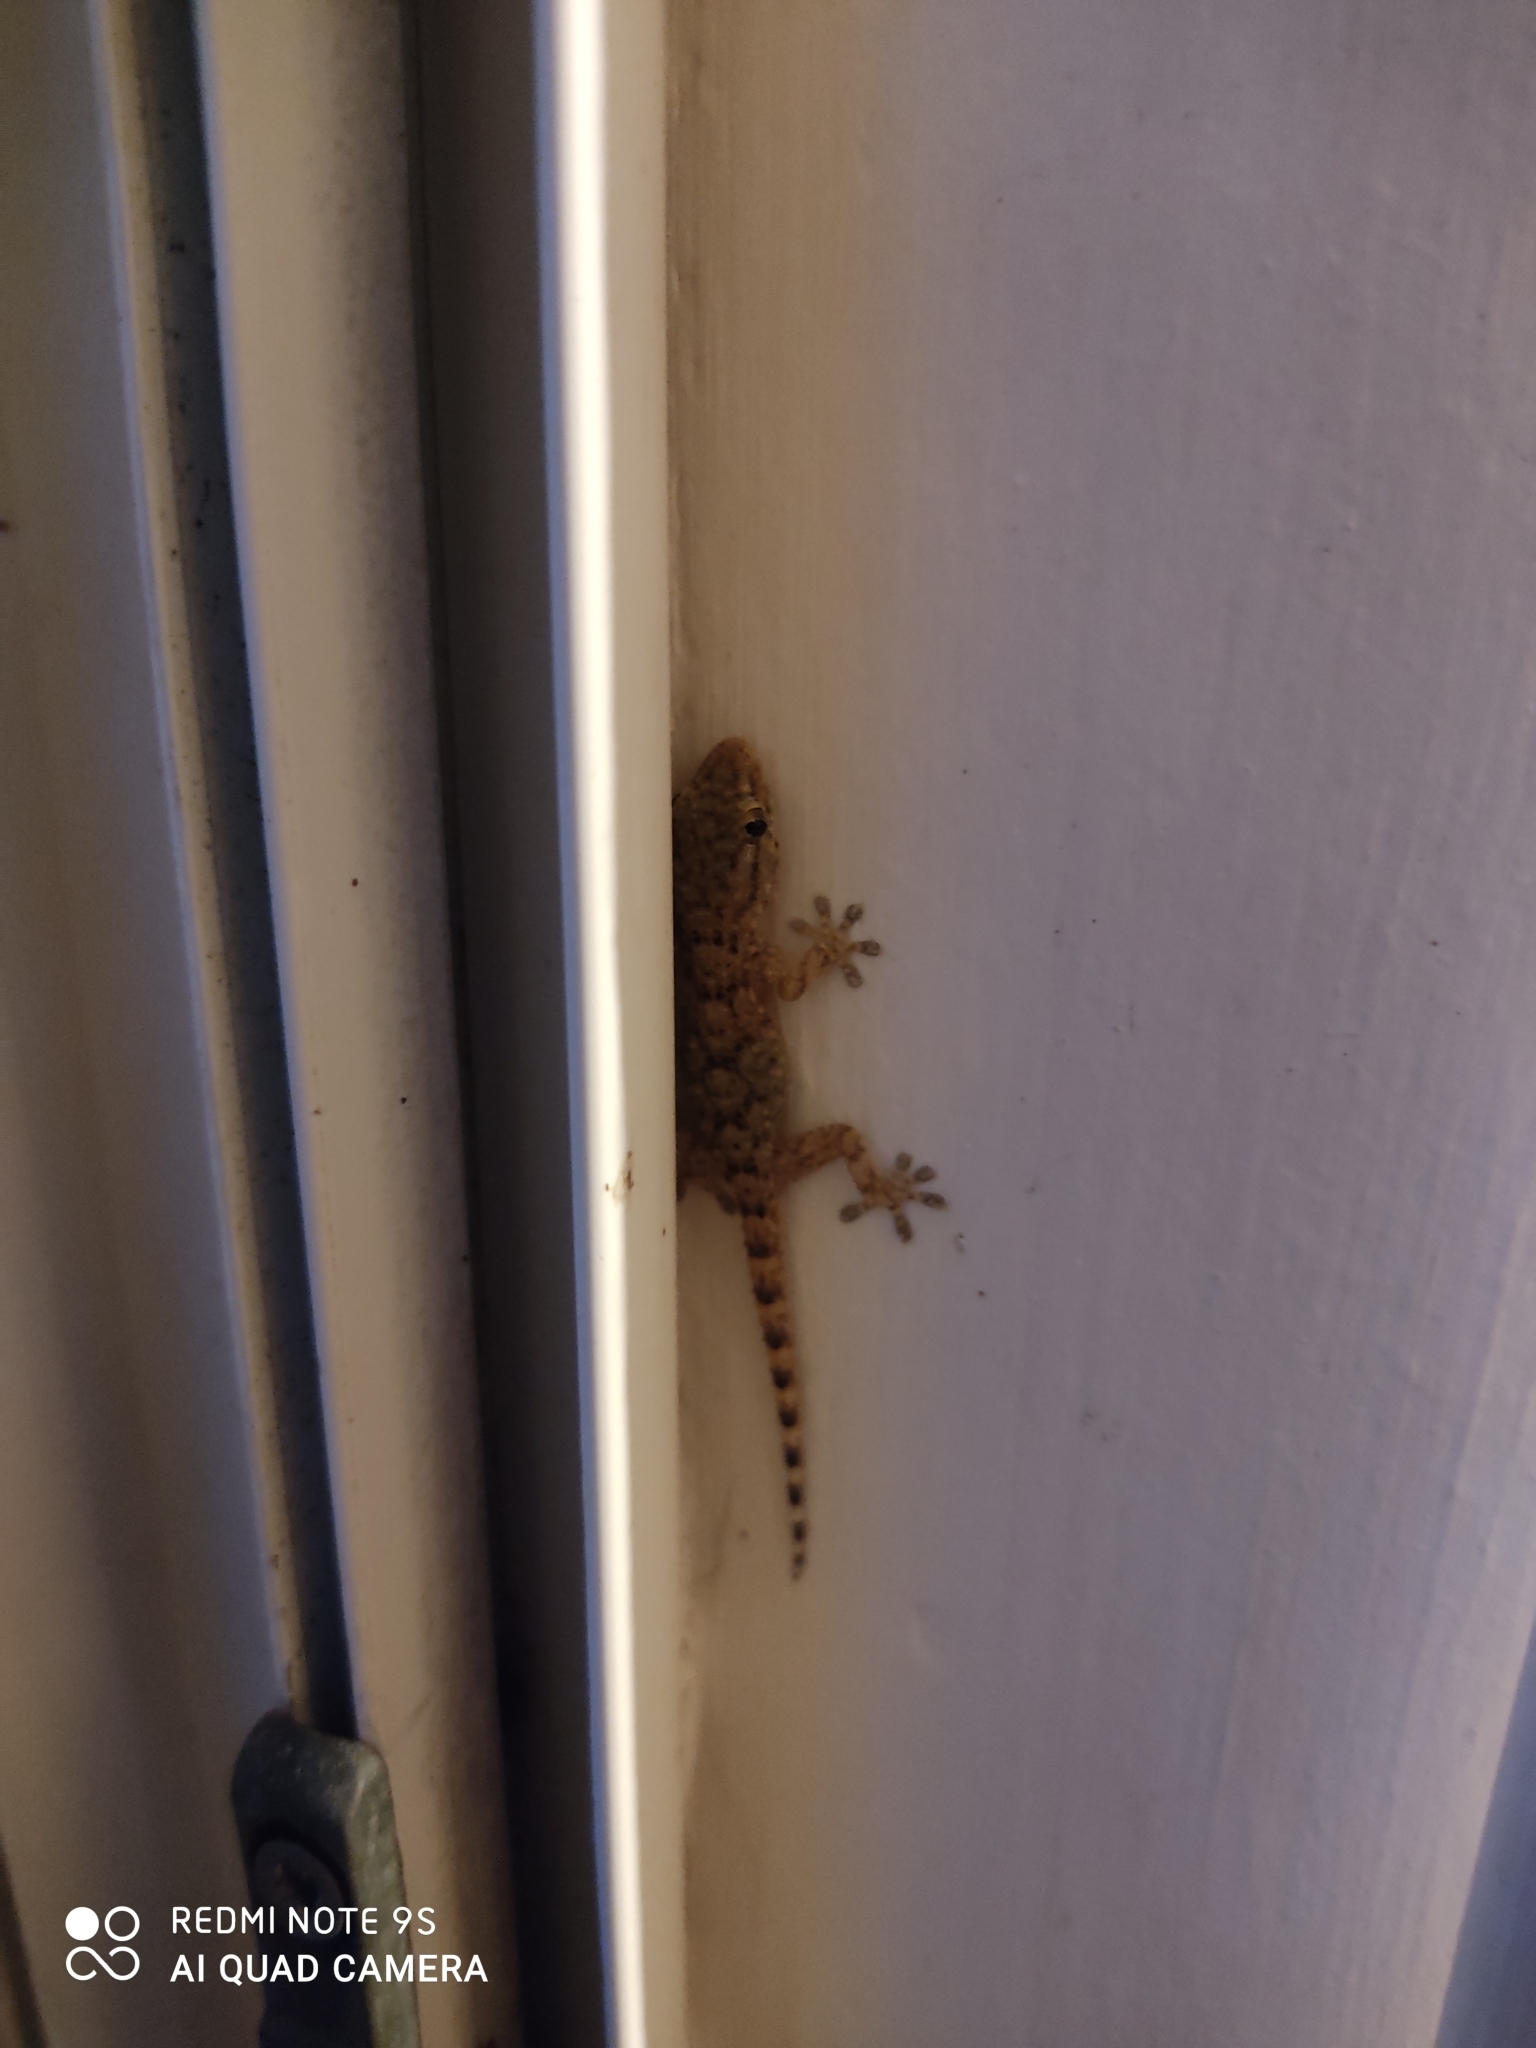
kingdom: Animalia
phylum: Chordata
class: Squamata
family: Phyllodactylidae
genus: Tarentola
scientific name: Tarentola mauritanica
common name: Moorish gecko
